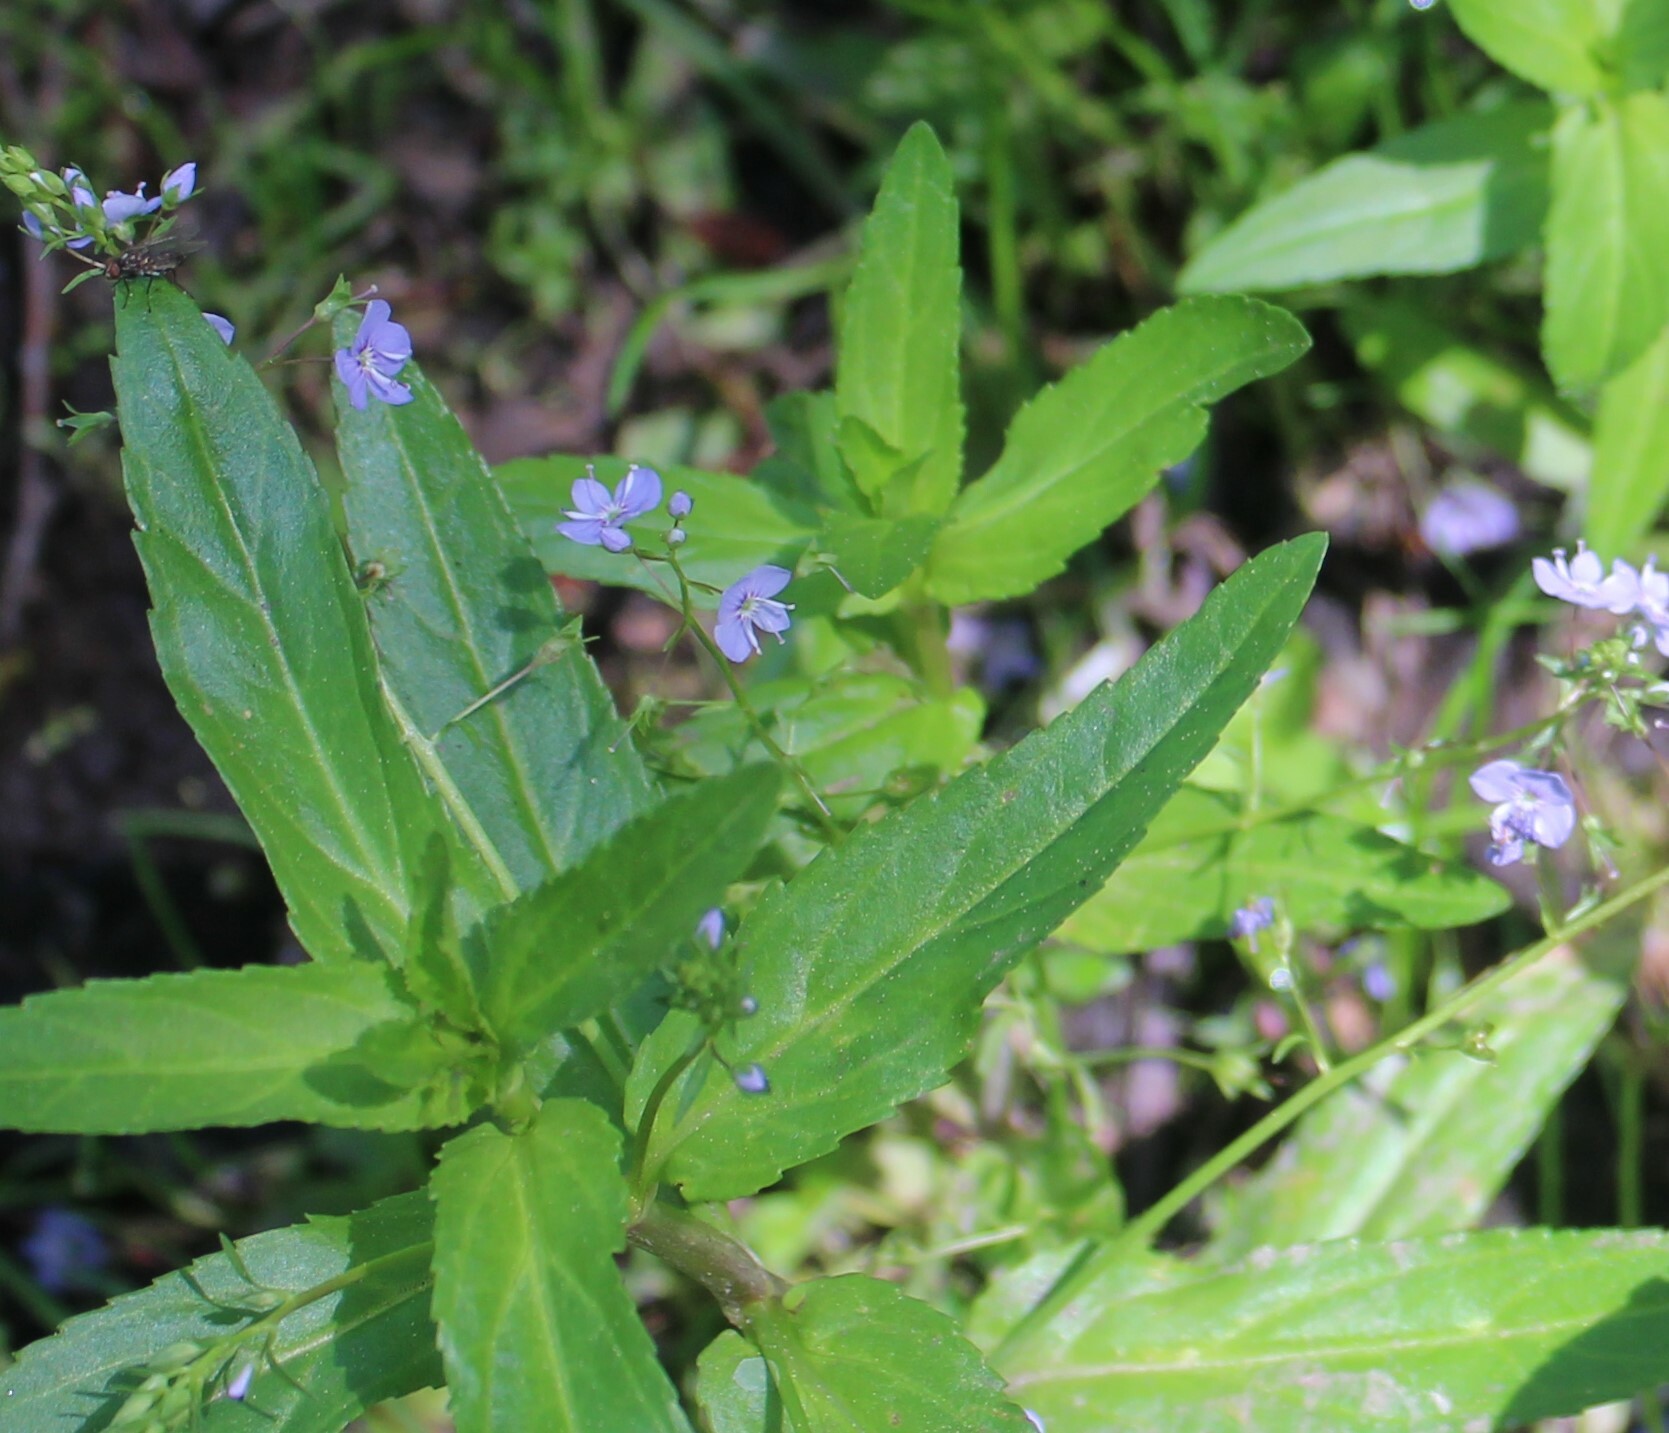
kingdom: Plantae
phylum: Tracheophyta
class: Magnoliopsida
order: Lamiales
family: Plantaginaceae
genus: Veronica
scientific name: Veronica americana
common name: American brooklime
